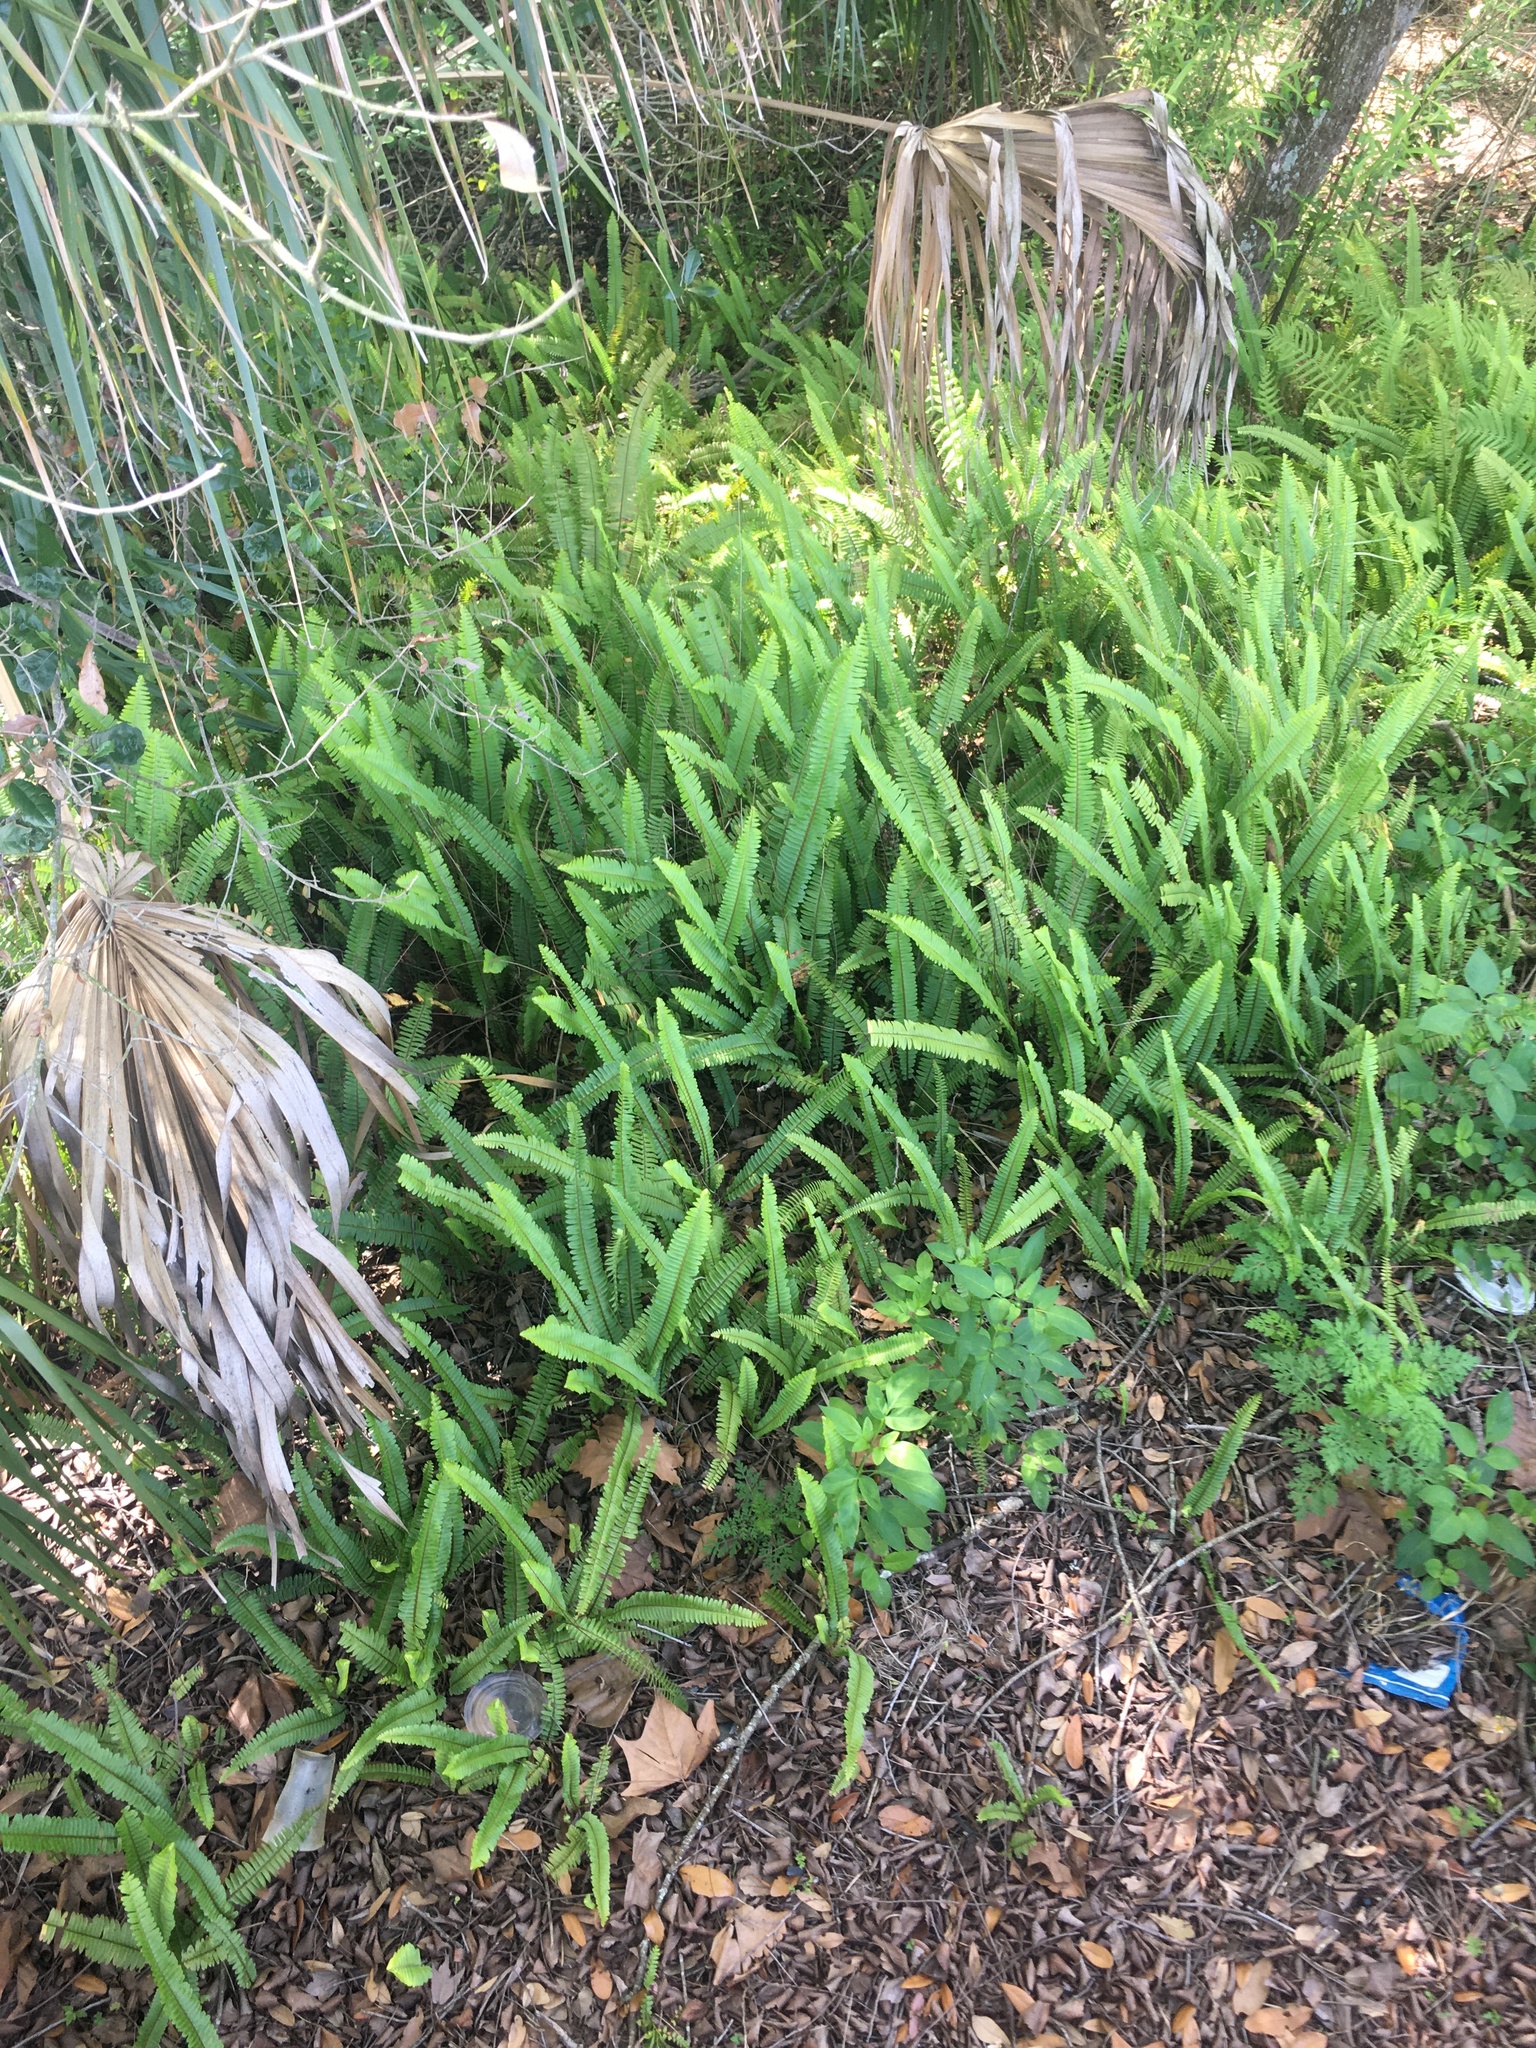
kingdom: Plantae
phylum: Tracheophyta
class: Polypodiopsida
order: Polypodiales
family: Nephrolepidaceae
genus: Nephrolepis
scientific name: Nephrolepis cordifolia
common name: Narrow swordfern
